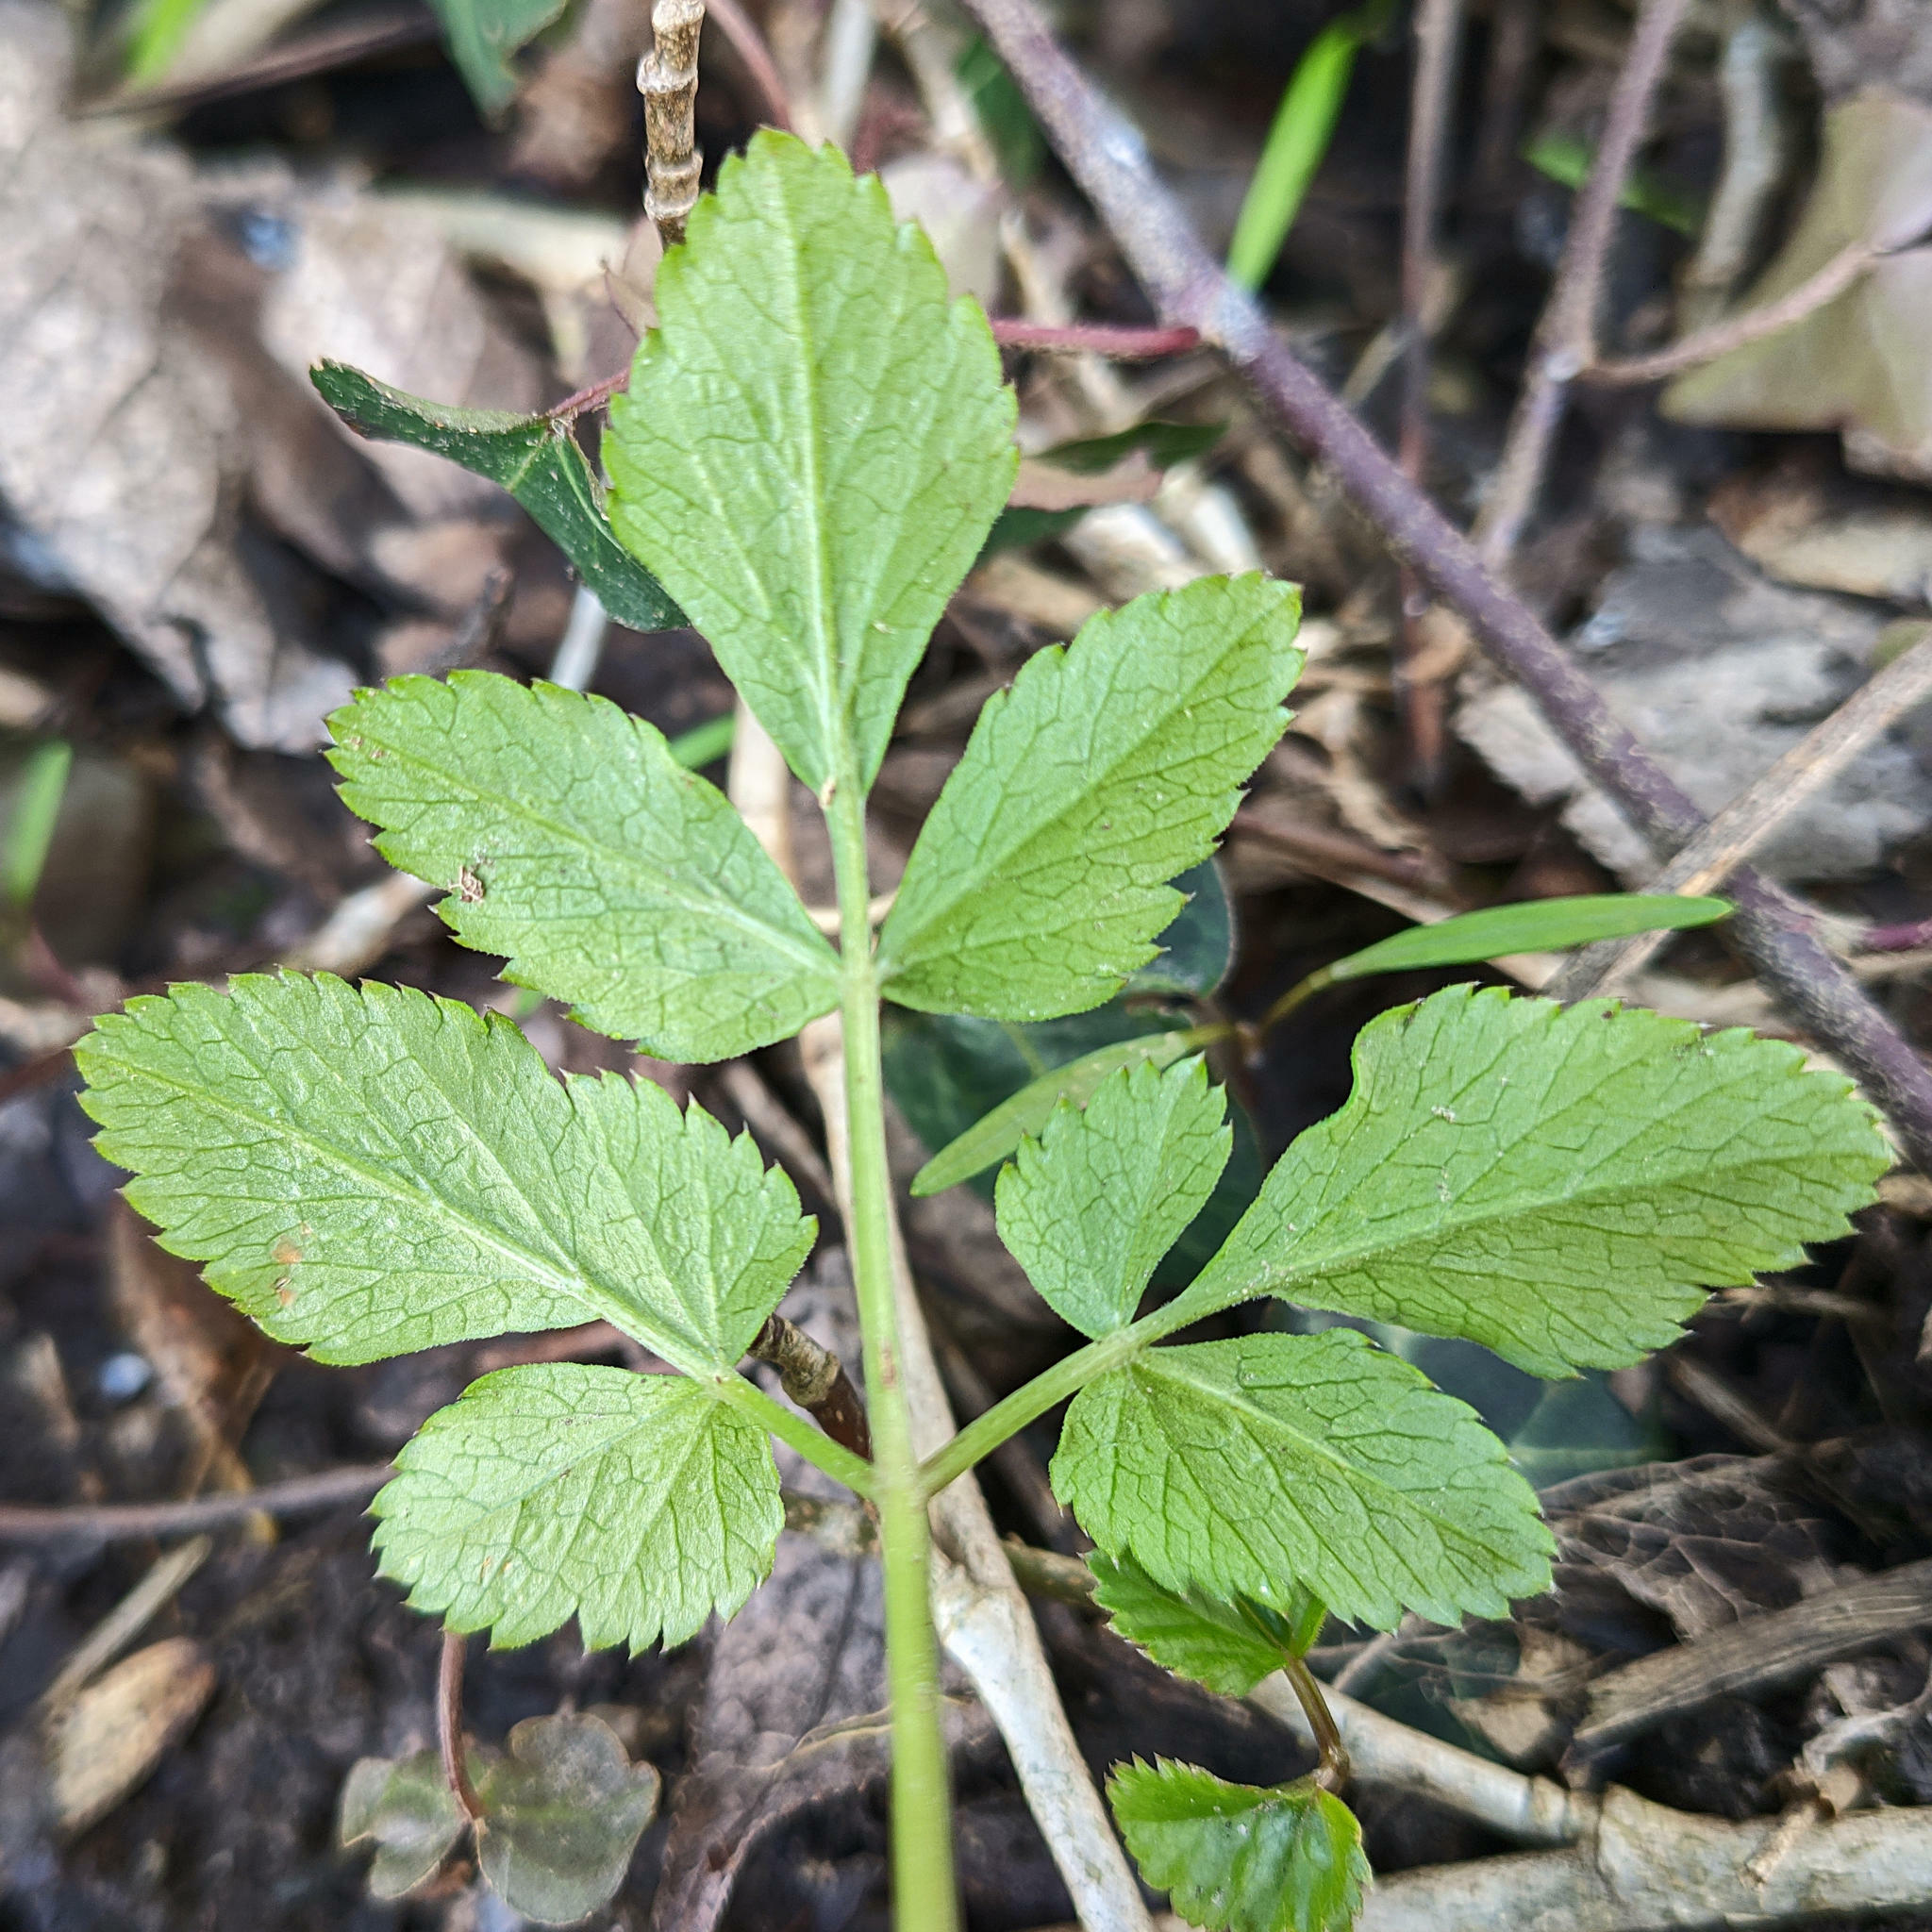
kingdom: Plantae
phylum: Tracheophyta
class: Magnoliopsida
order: Apiales
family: Apiaceae
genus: Aegopodium
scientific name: Aegopodium podagraria
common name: Ground-elder
